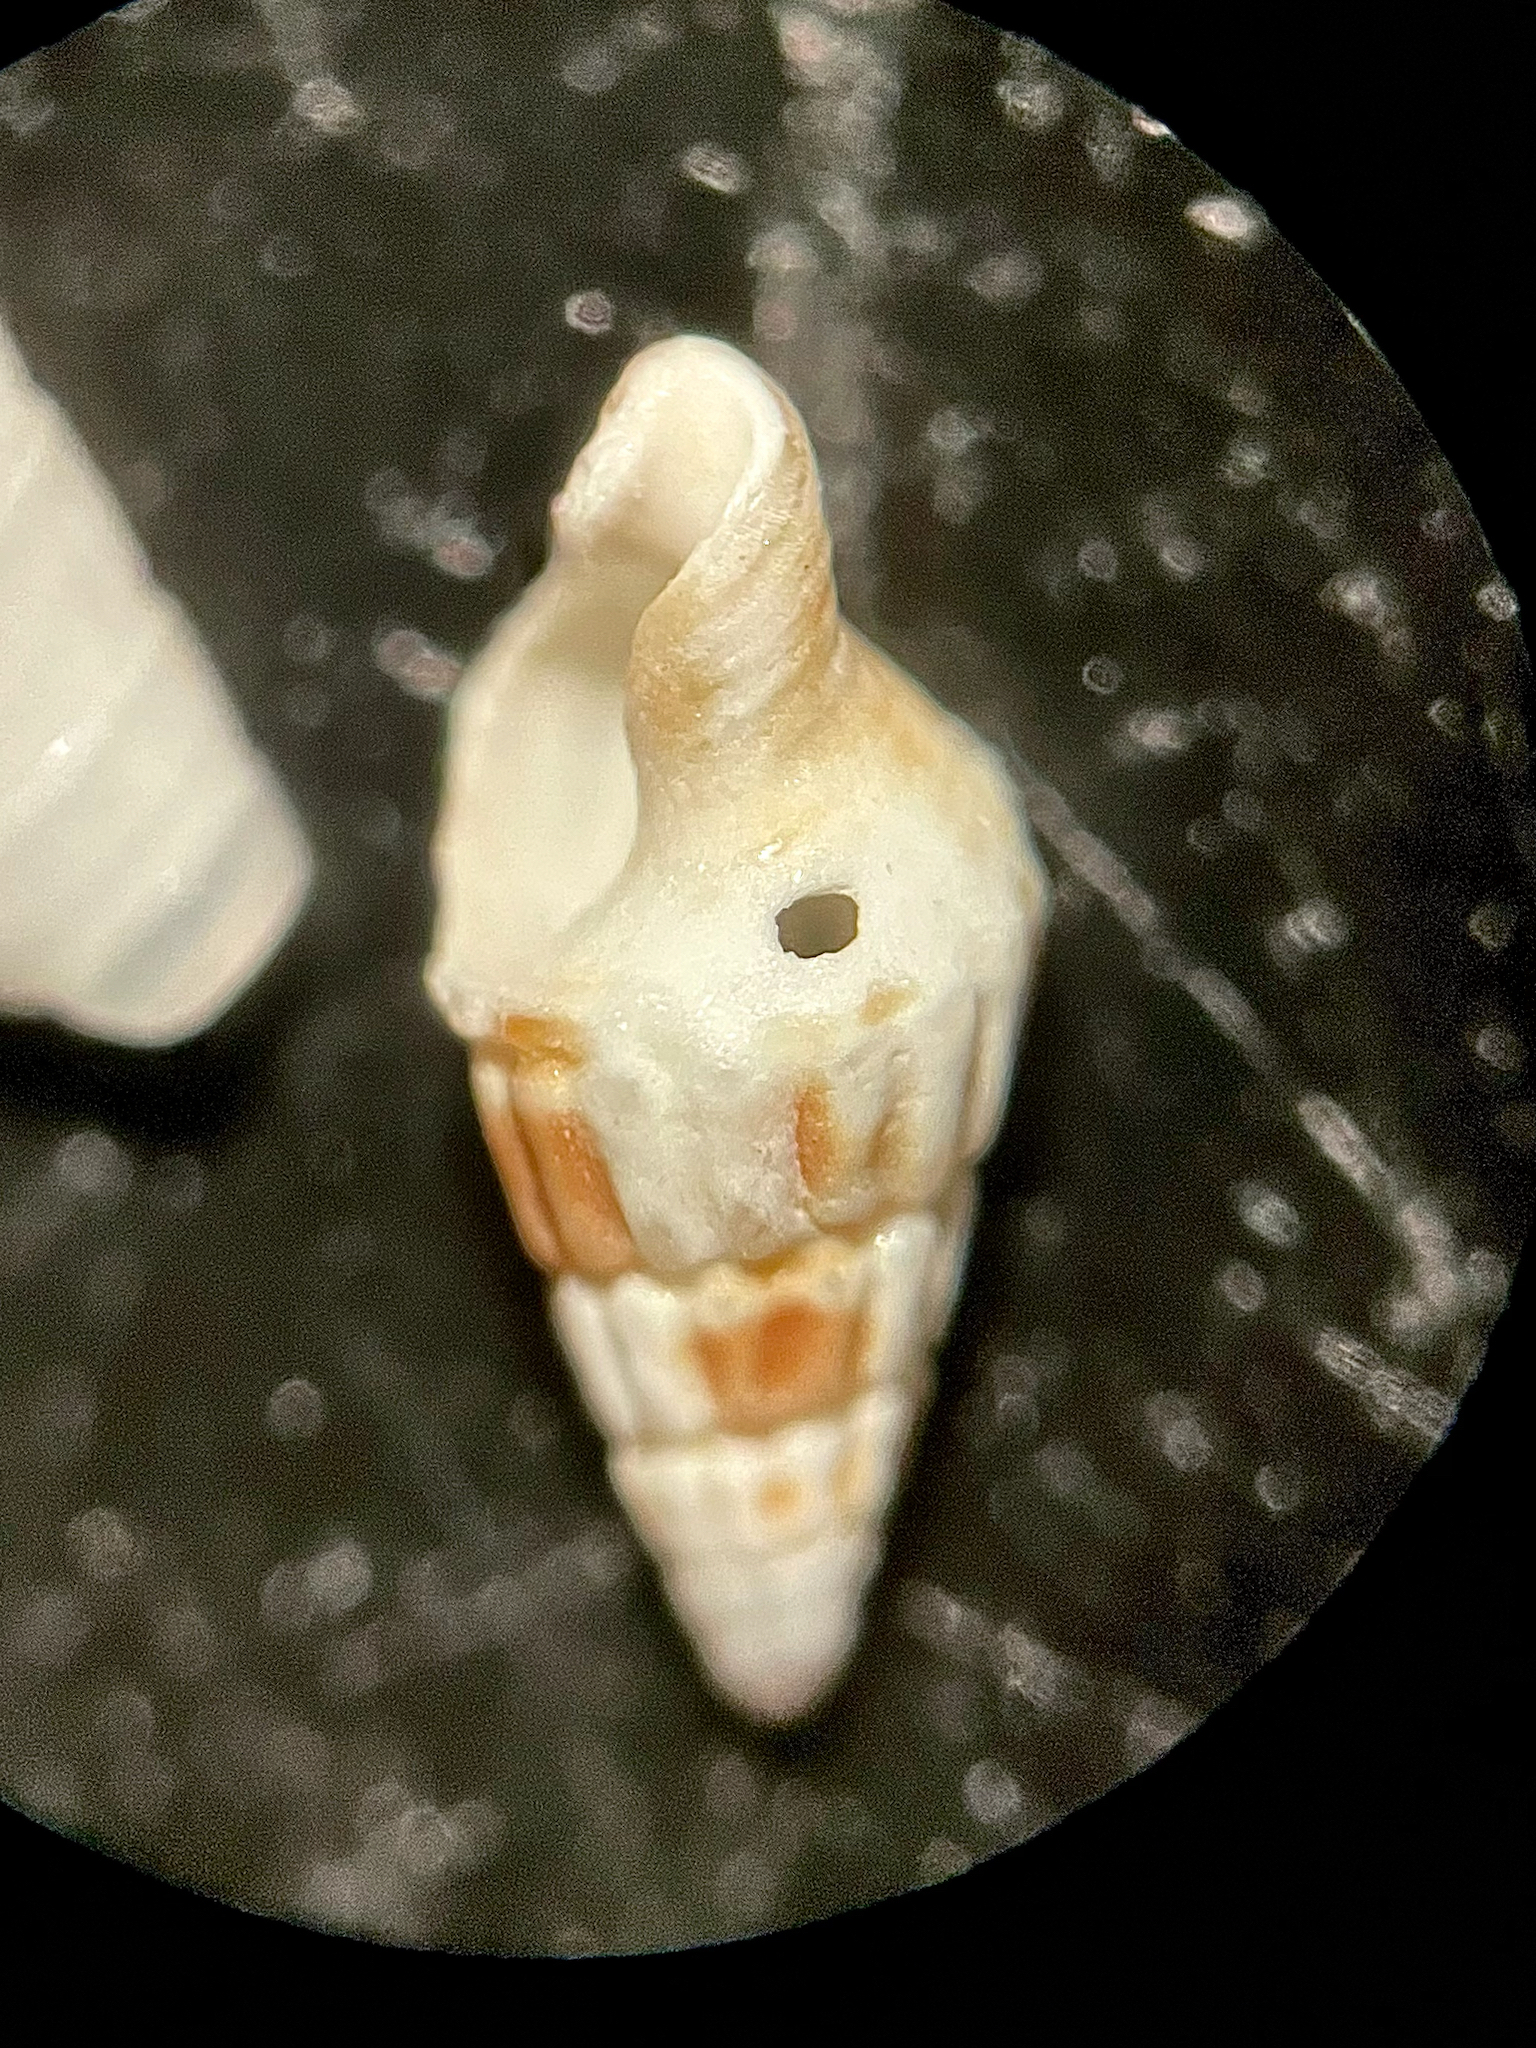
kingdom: Animalia
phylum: Mollusca
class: Gastropoda
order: Neogastropoda
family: Columbellidae
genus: Suturoglypta
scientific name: Suturoglypta iontha
